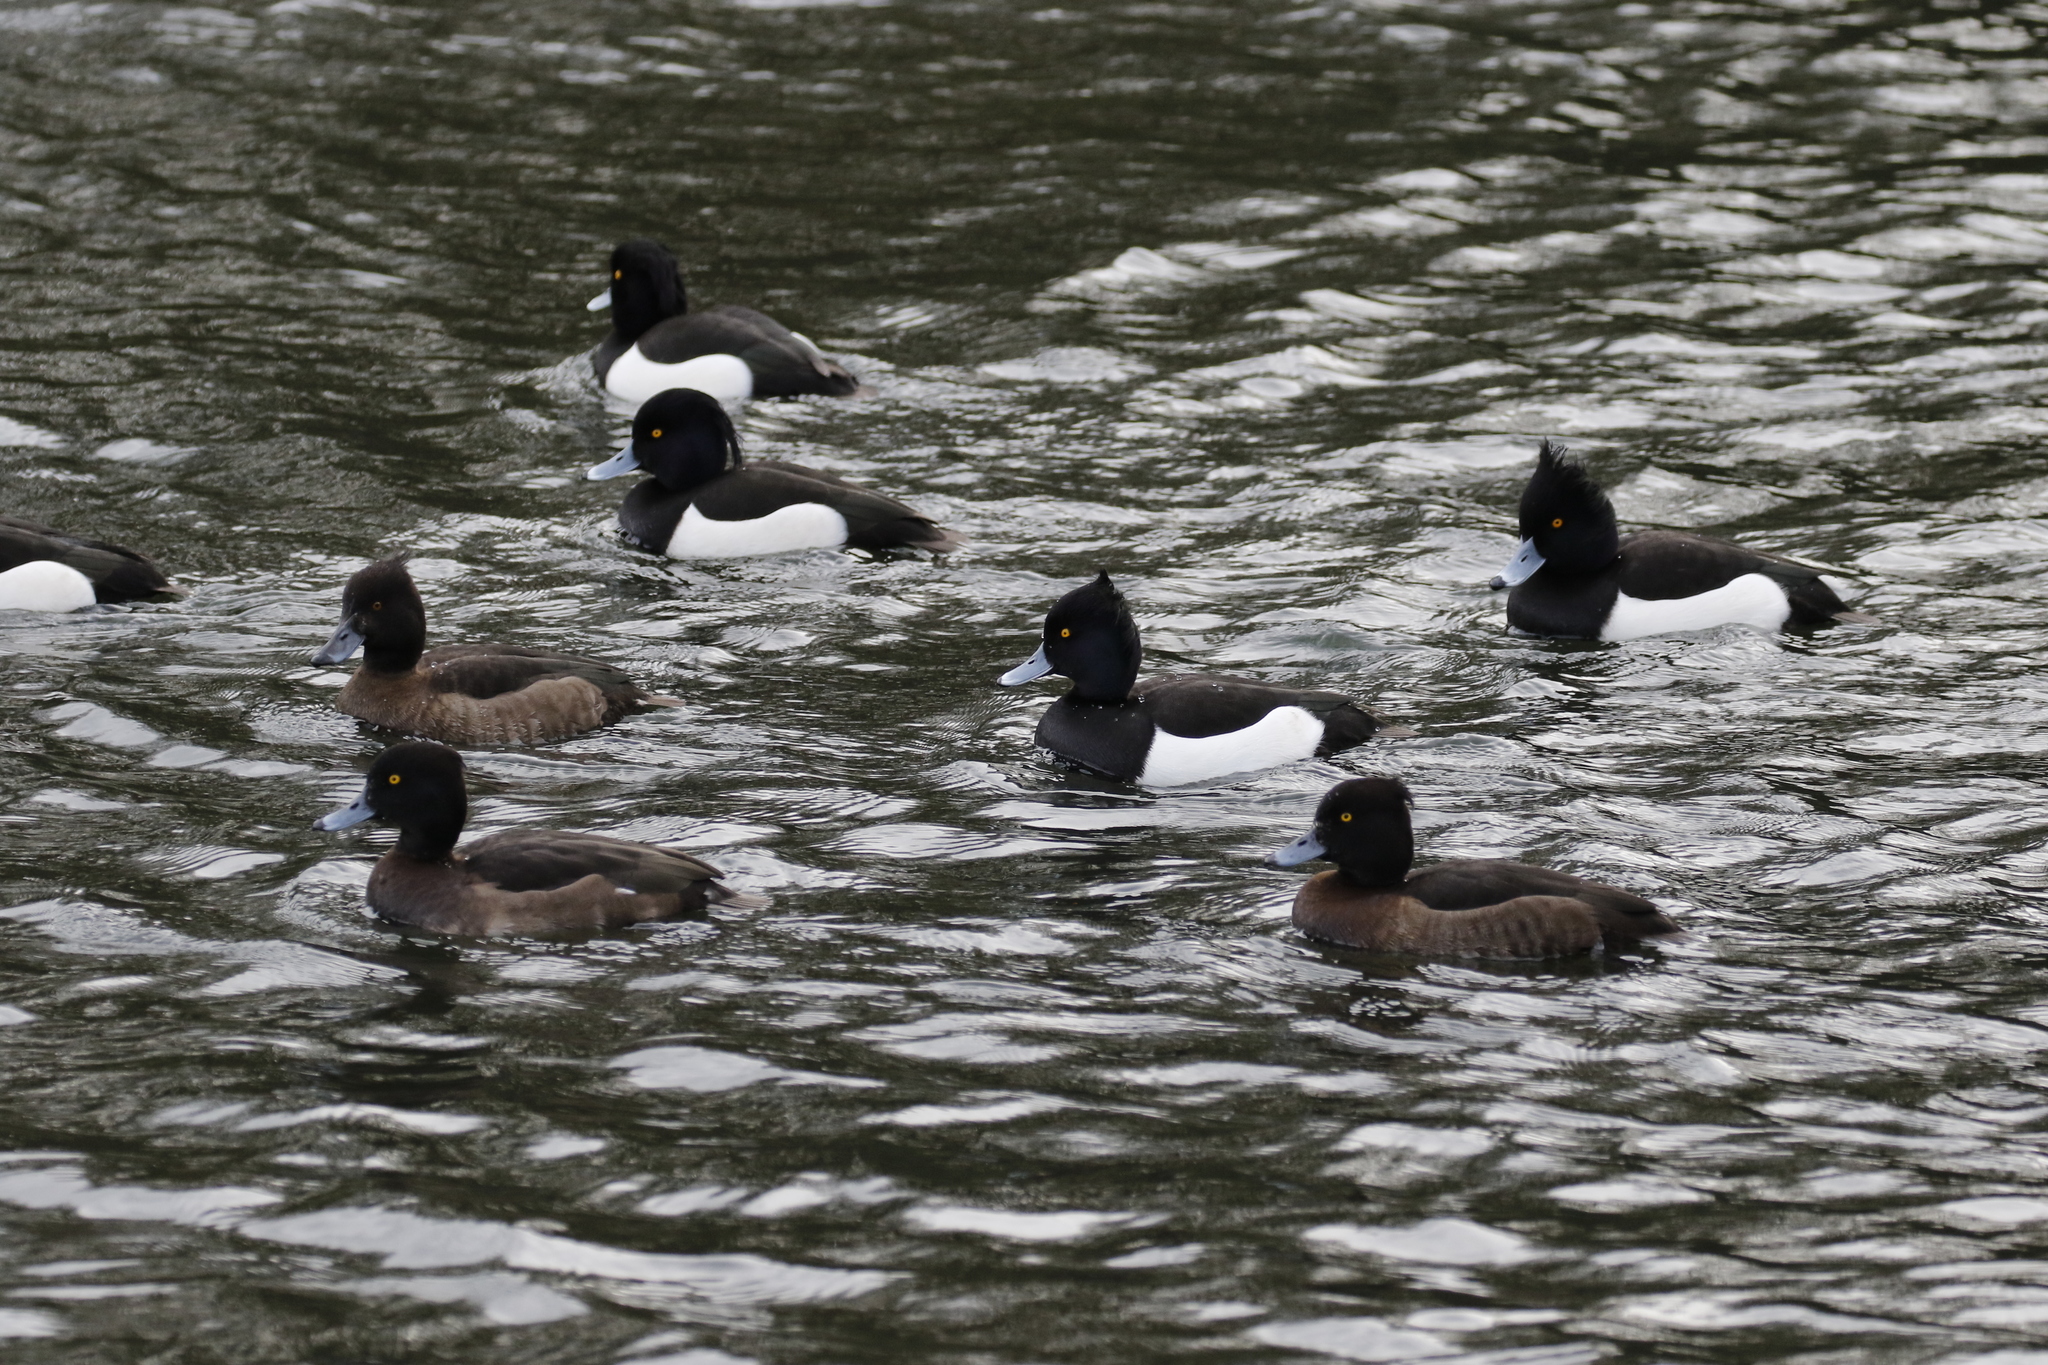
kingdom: Animalia
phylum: Chordata
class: Aves
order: Anseriformes
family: Anatidae
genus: Aythya
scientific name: Aythya fuligula
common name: Tufted duck
